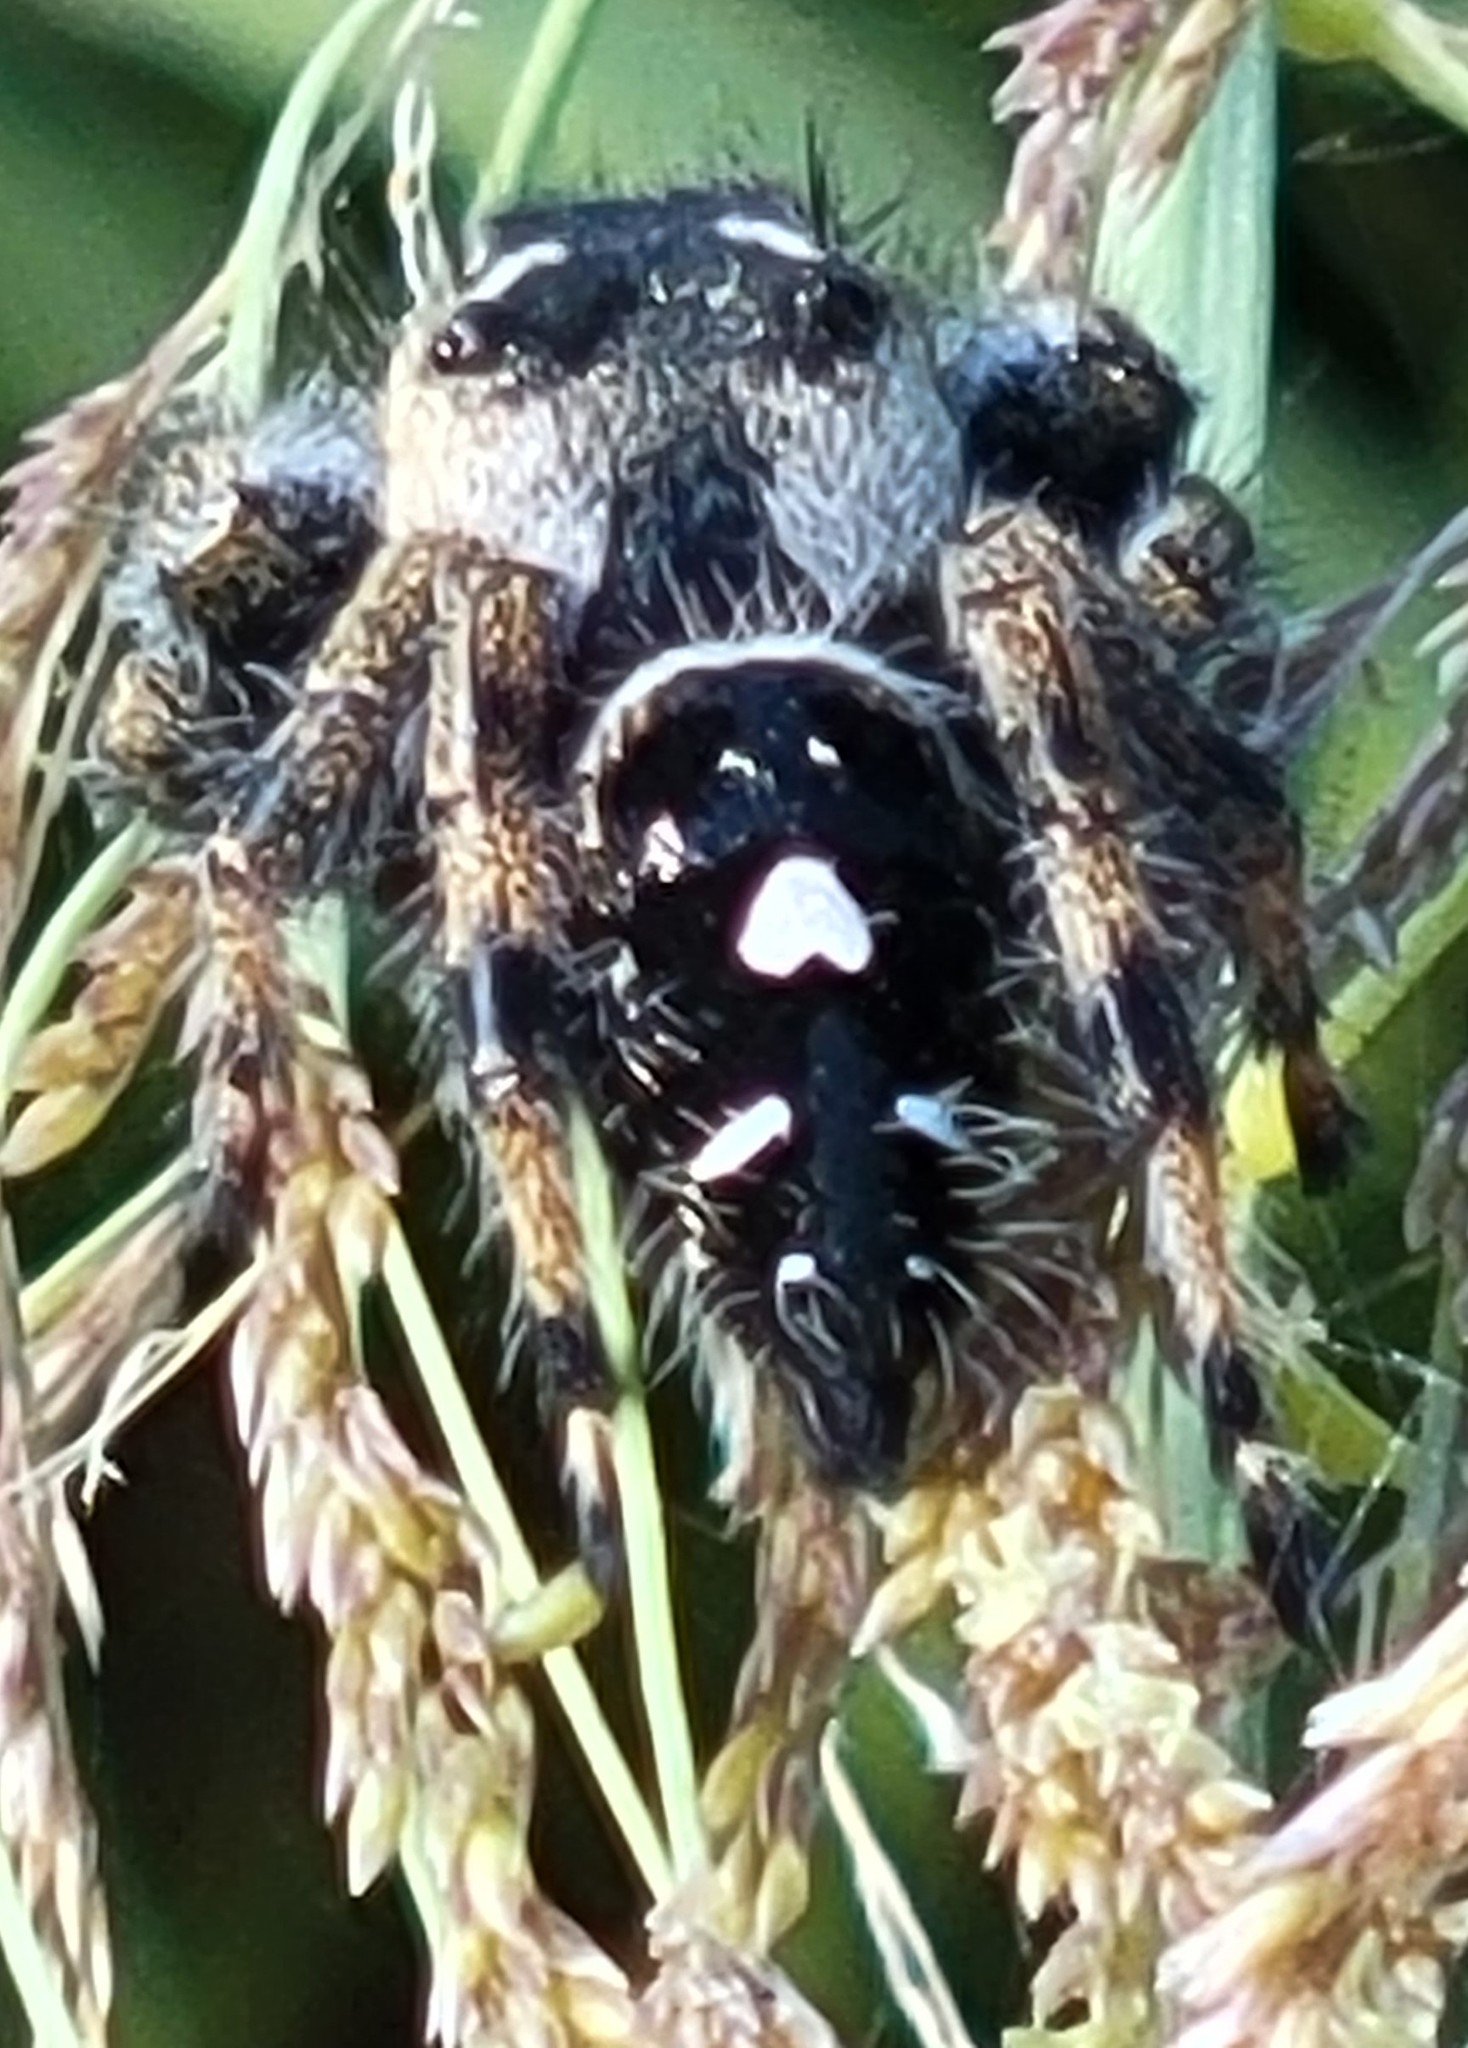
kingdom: Animalia
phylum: Arthropoda
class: Arachnida
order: Araneae
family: Salticidae
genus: Phidippus
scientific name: Phidippus audax
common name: Bold jumper
